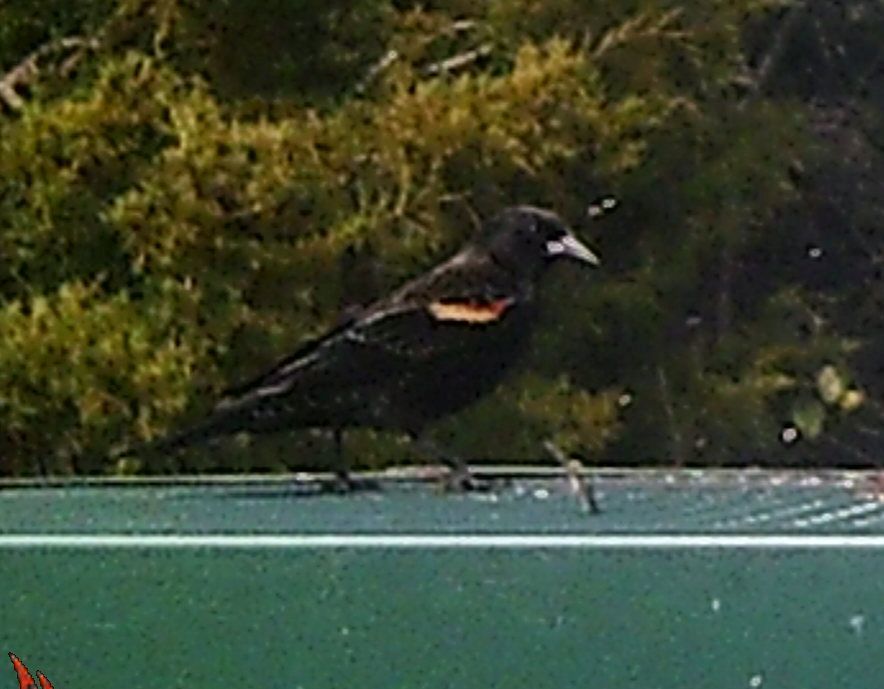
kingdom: Animalia
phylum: Chordata
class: Aves
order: Passeriformes
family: Icteridae
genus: Agelaius
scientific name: Agelaius phoeniceus
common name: Red-winged blackbird
